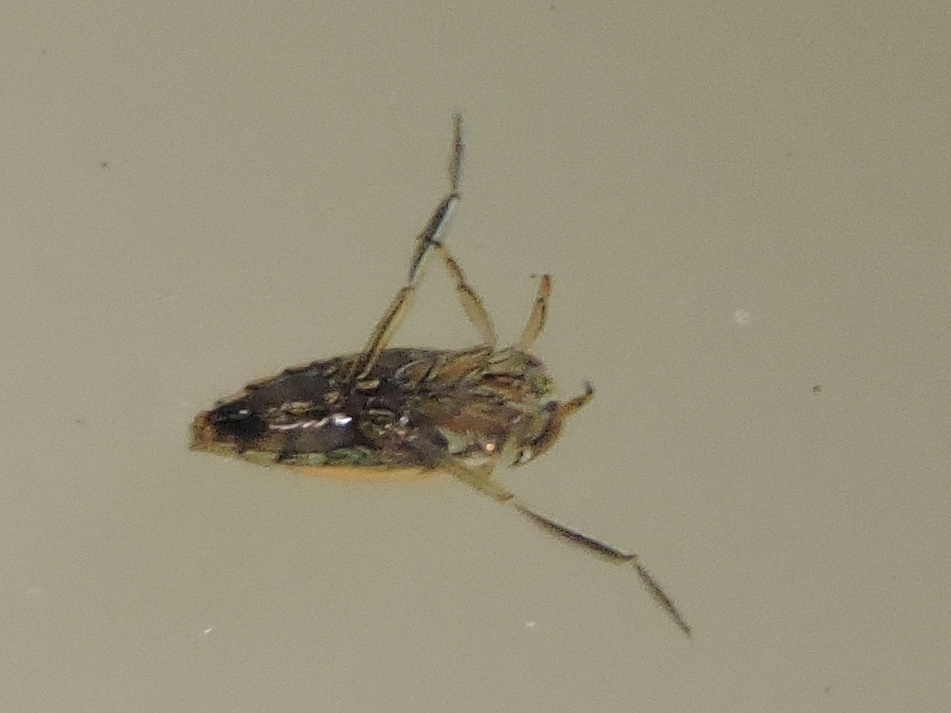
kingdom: Animalia
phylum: Arthropoda
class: Insecta
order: Hemiptera
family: Notonectidae
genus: Enithares
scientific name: Enithares
